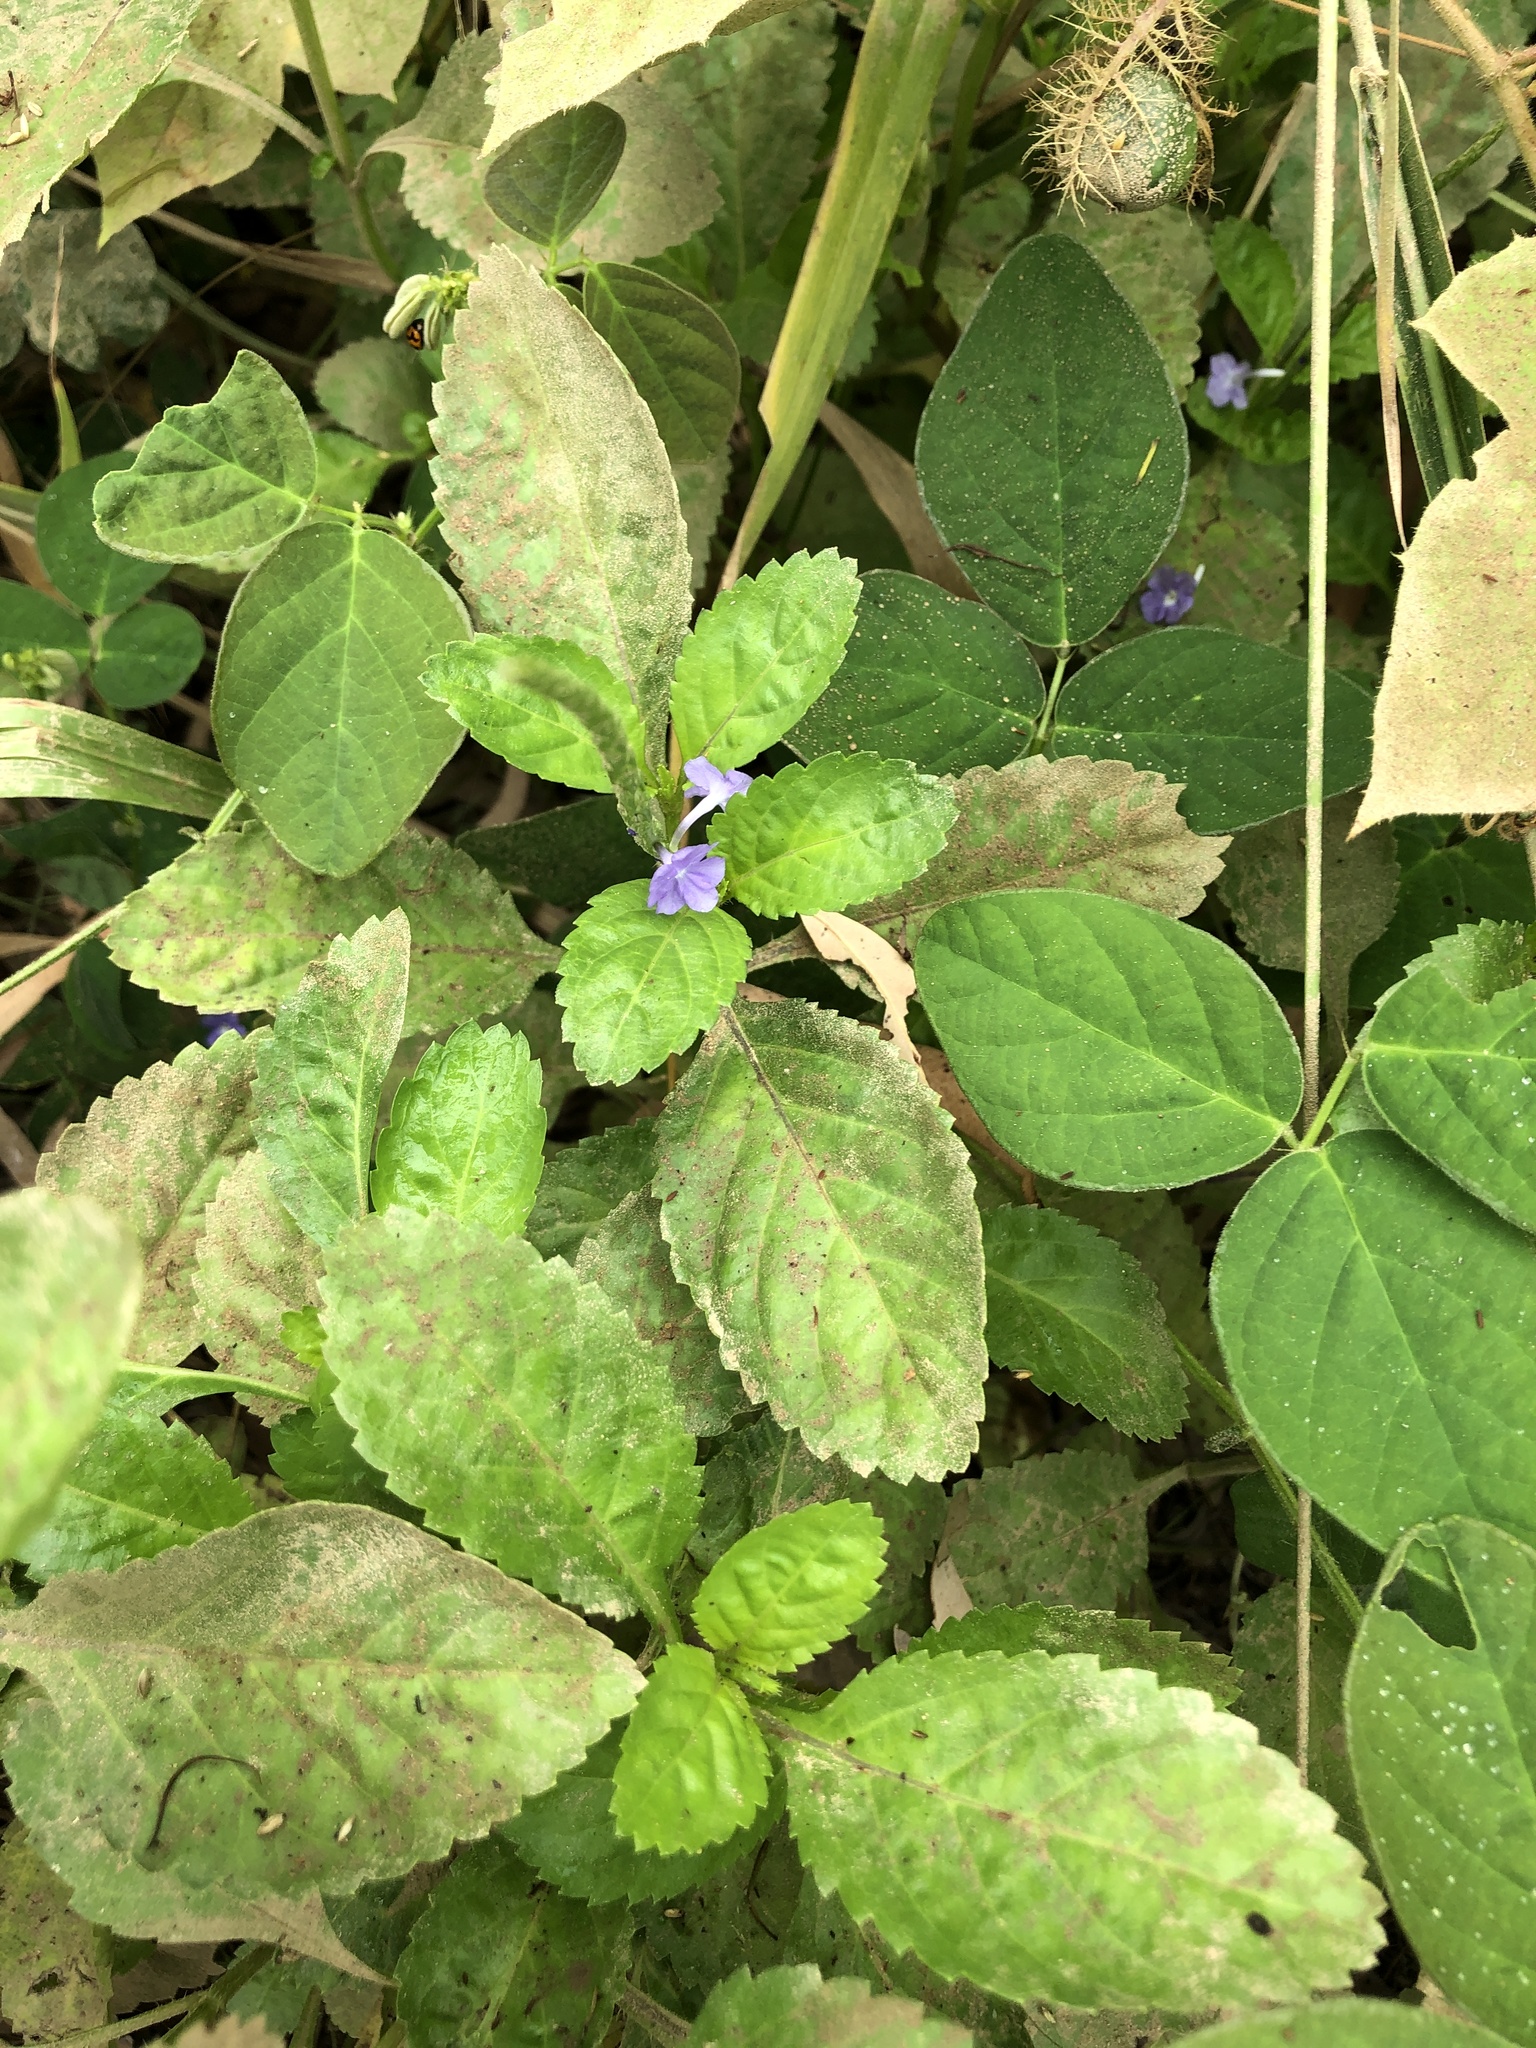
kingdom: Plantae
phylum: Tracheophyta
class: Magnoliopsida
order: Lamiales
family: Verbenaceae
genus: Stachytarpheta
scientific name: Stachytarpheta jamaicensis
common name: Light-blue snakeweed
